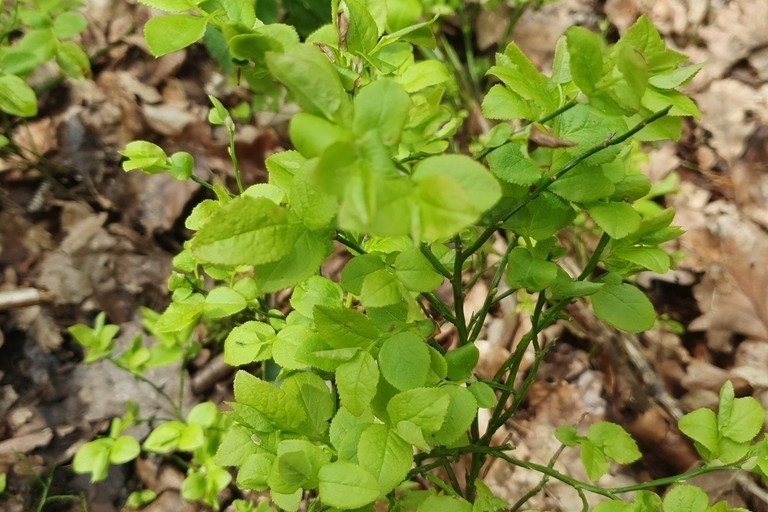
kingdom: Plantae
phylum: Tracheophyta
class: Magnoliopsida
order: Ericales
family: Ericaceae
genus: Vaccinium
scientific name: Vaccinium myrtillus
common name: Bilberry
